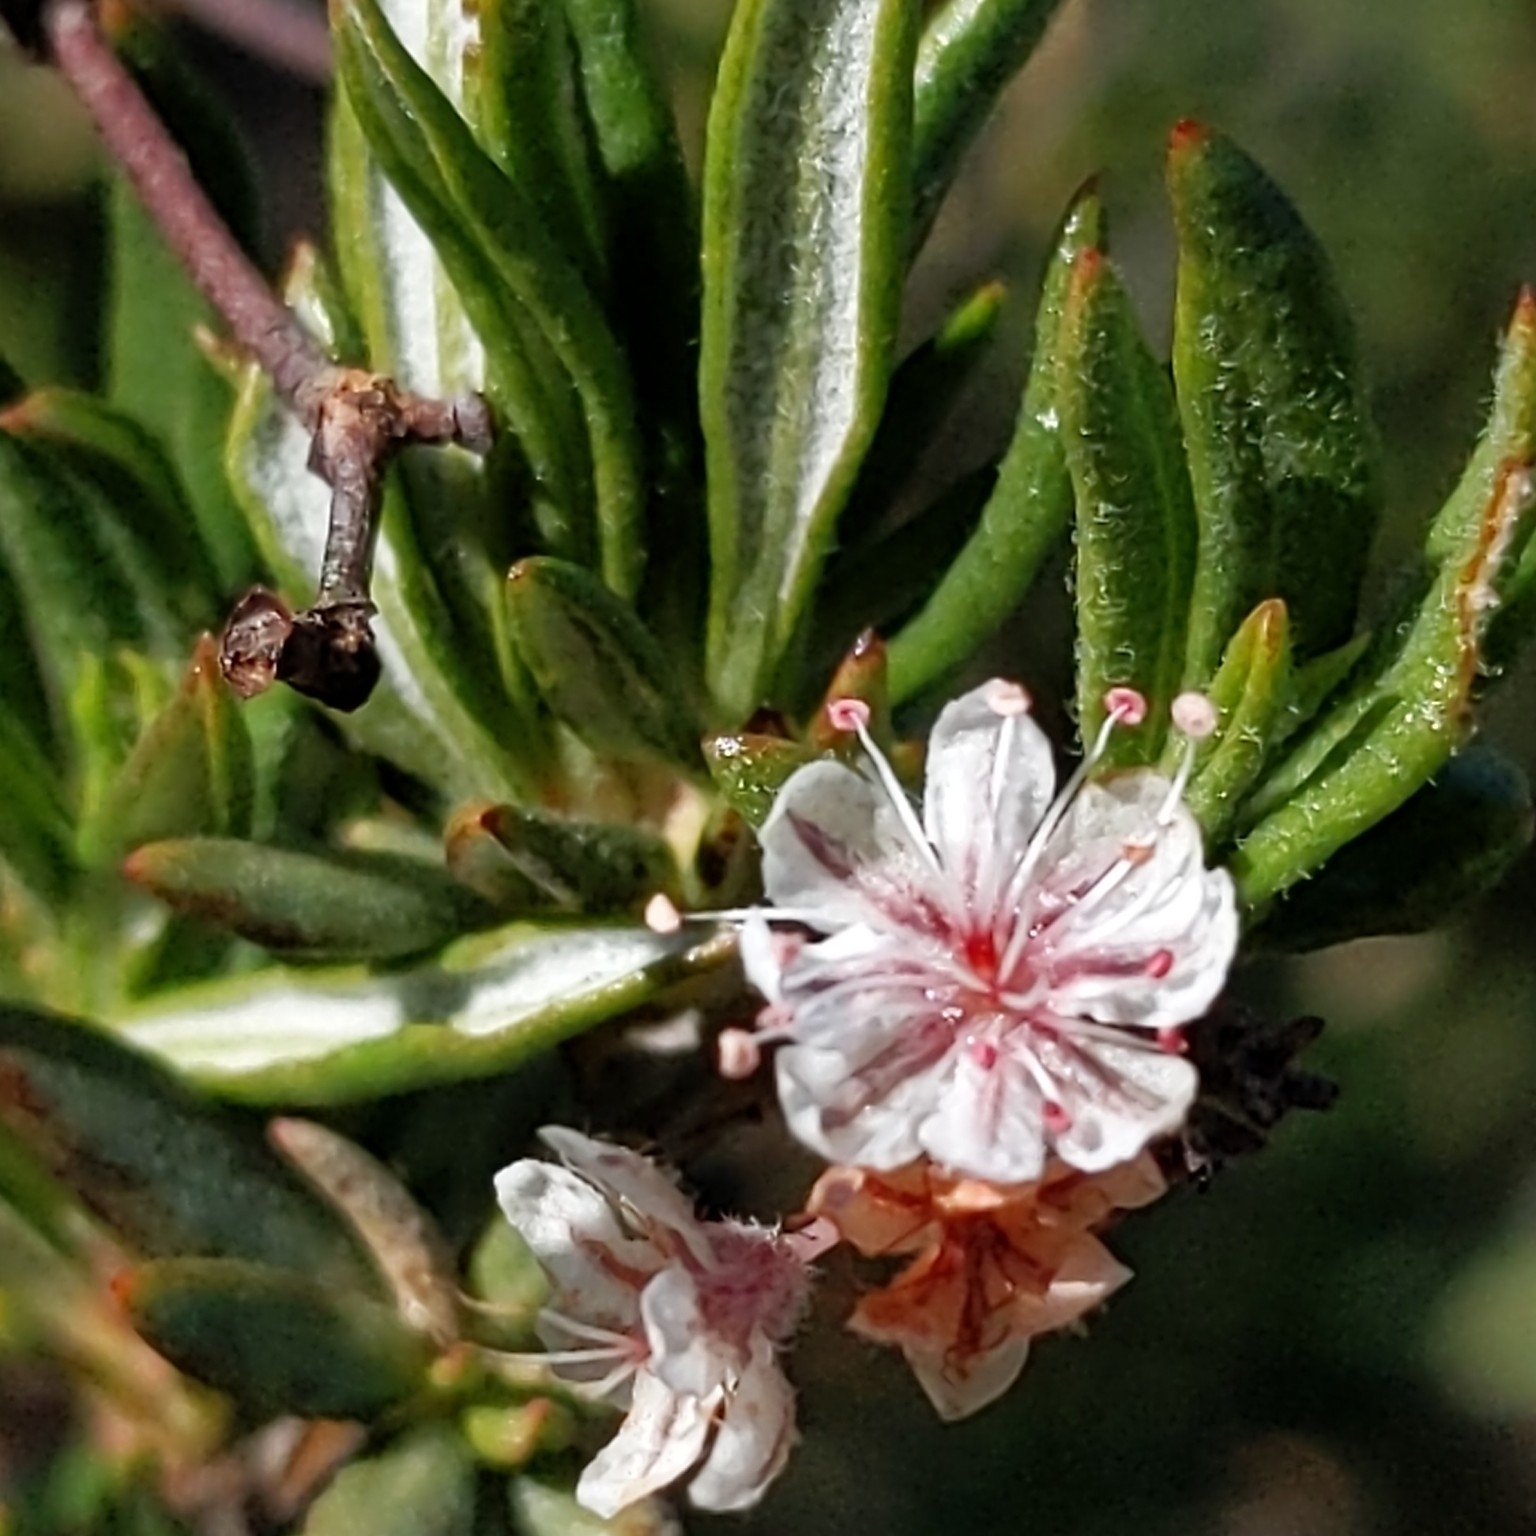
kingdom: Plantae
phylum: Tracheophyta
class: Magnoliopsida
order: Caryophyllales
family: Polygonaceae
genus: Eriogonum
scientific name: Eriogonum fasciculatum
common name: California wild buckwheat
